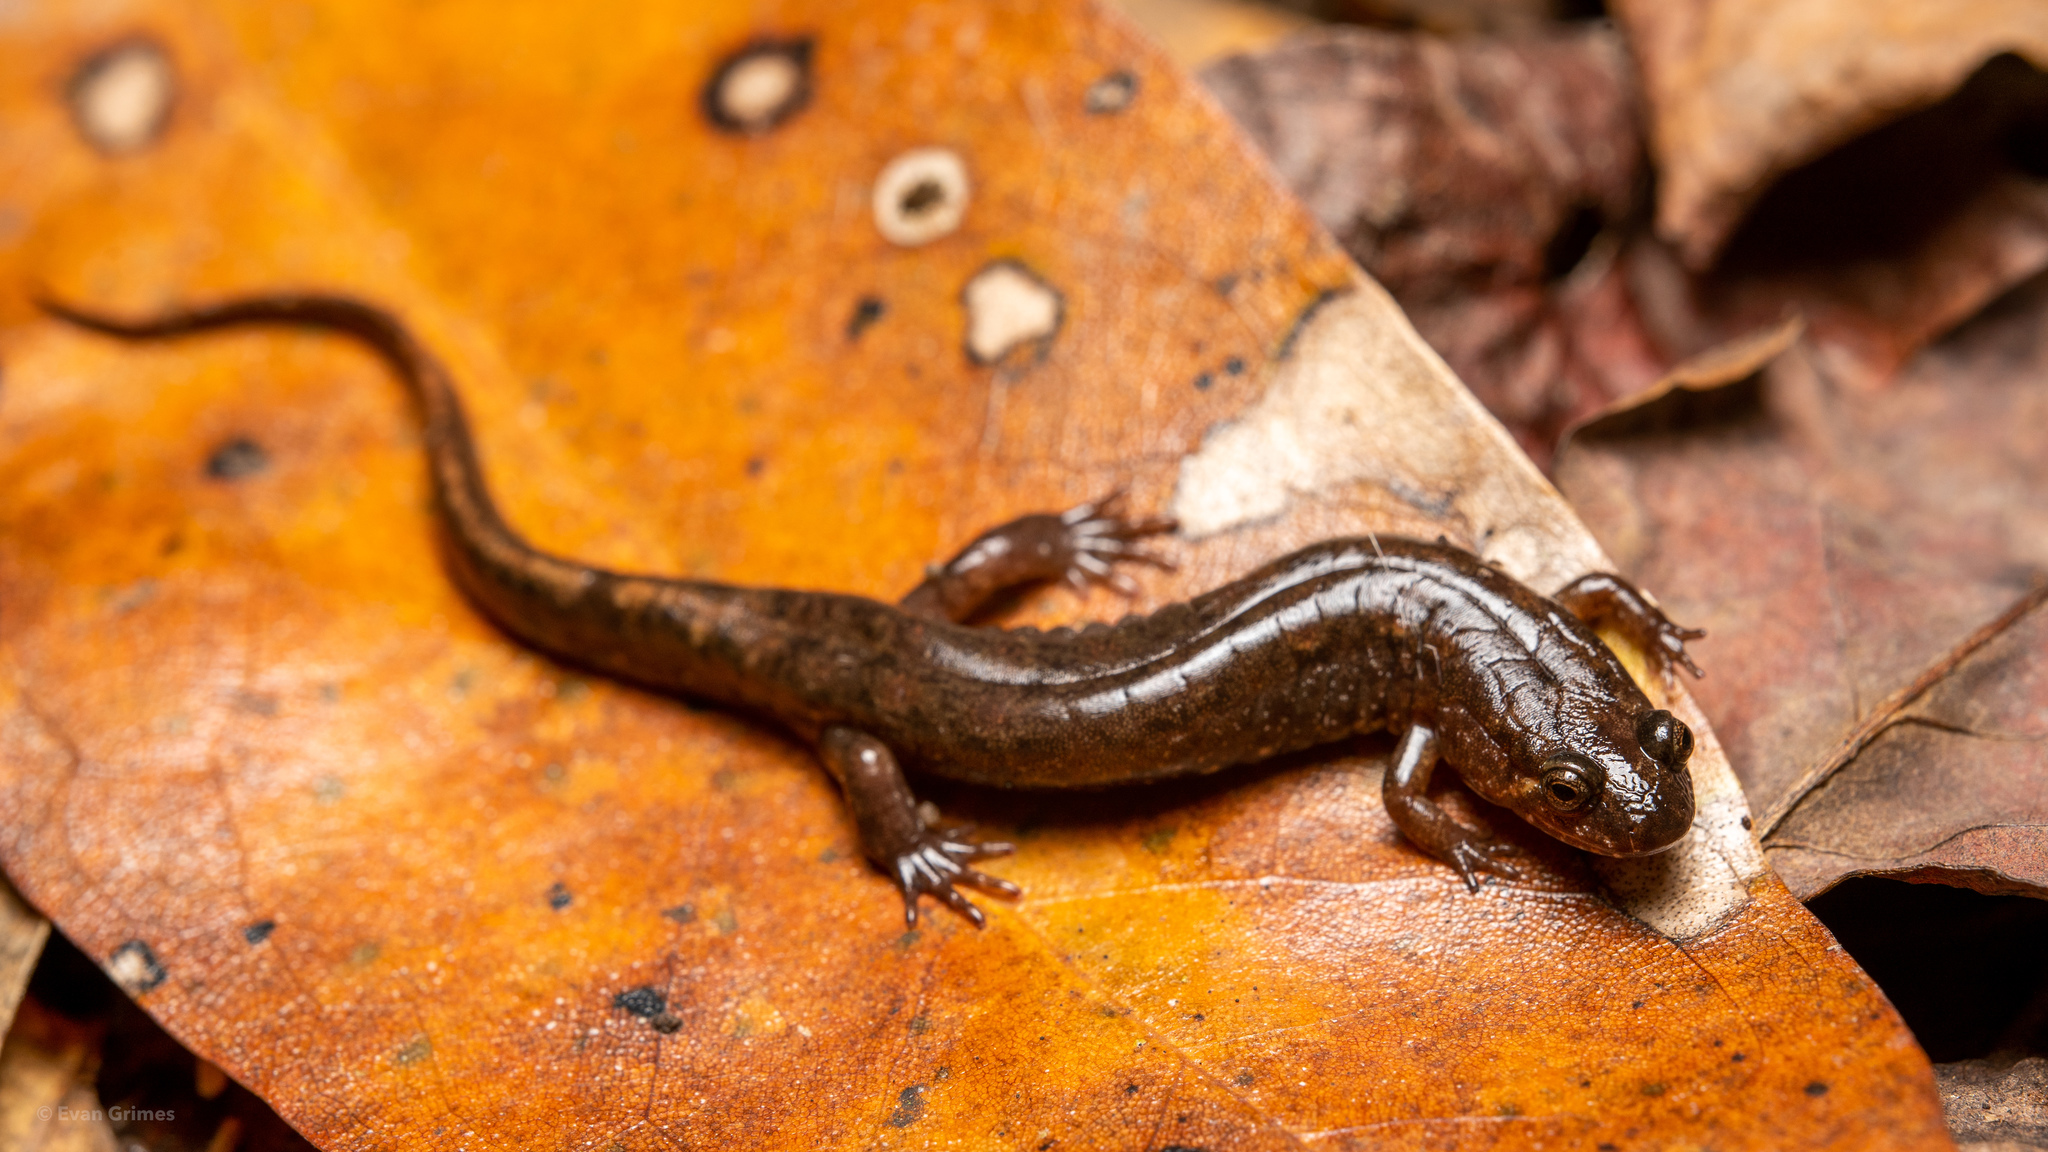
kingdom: Animalia
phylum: Chordata
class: Amphibia
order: Caudata
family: Plethodontidae
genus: Desmognathus
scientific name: Desmognathus conanti
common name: Spotted dusky salamander
